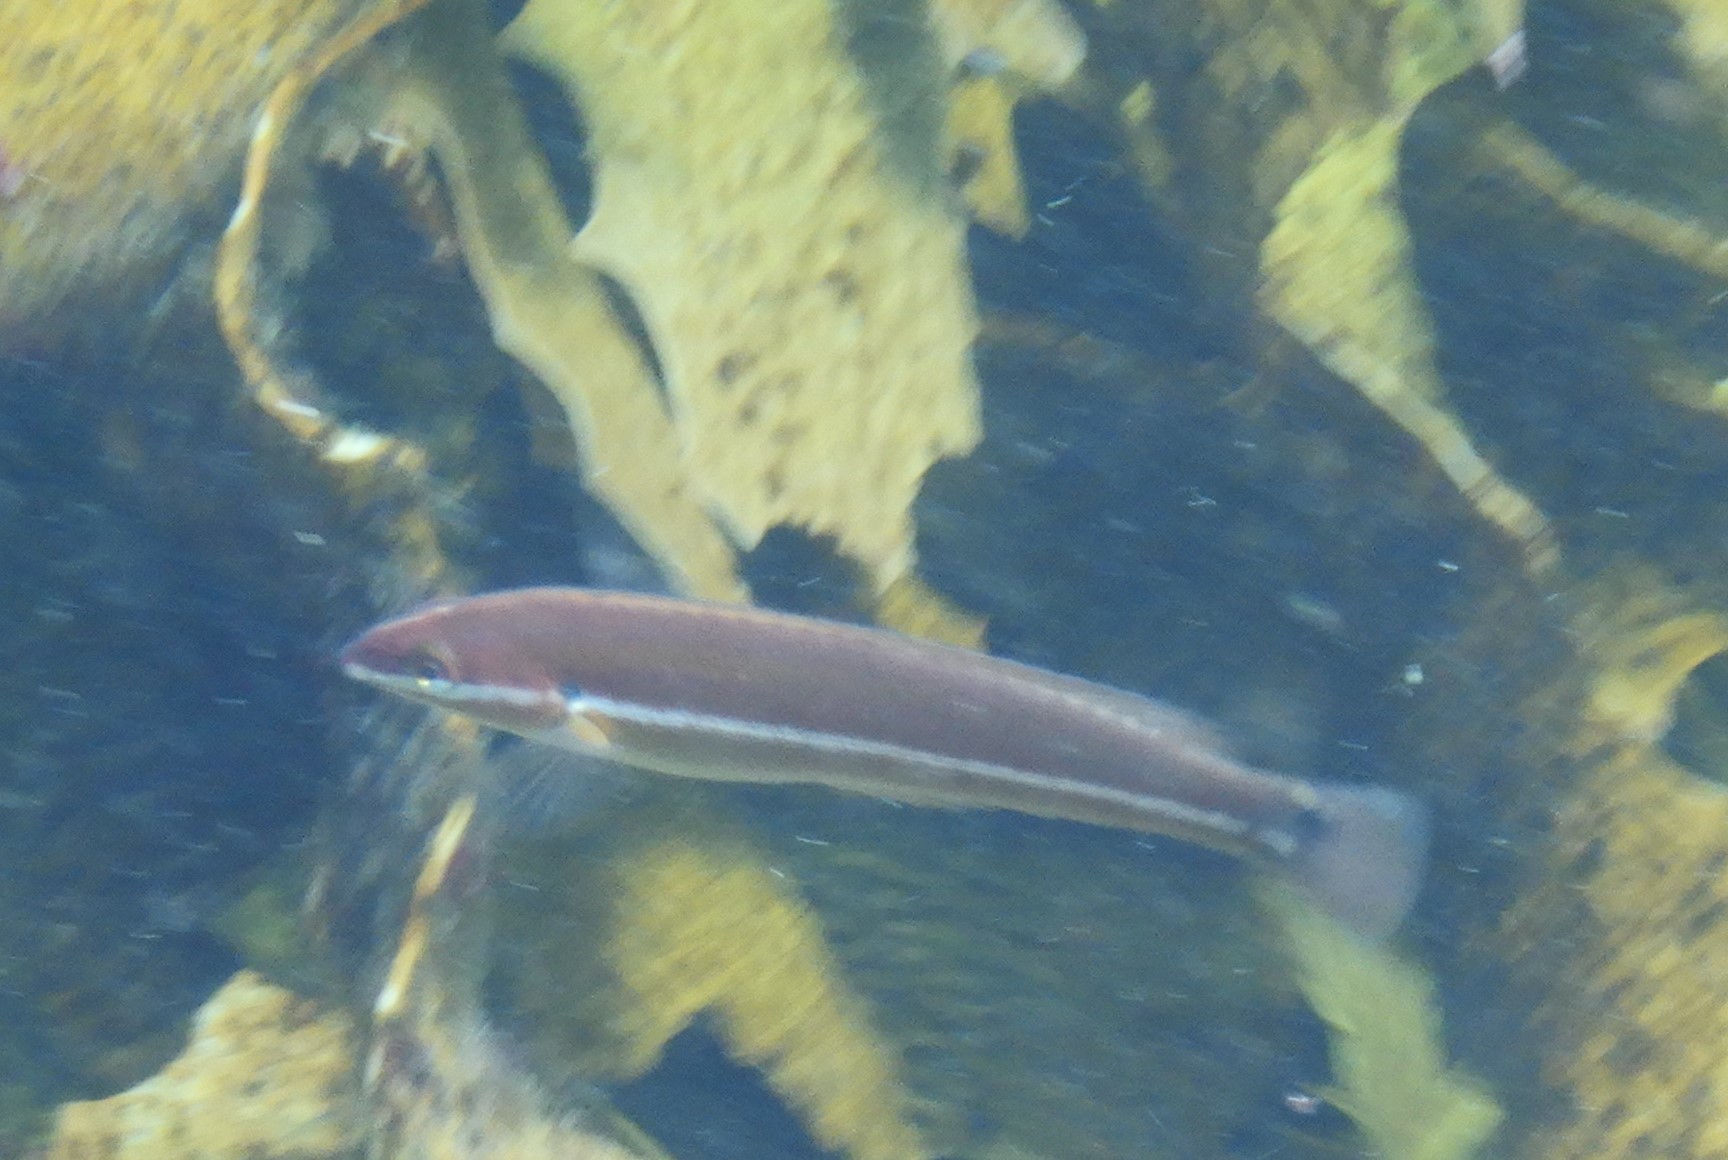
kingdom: Animalia
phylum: Chordata
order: Perciformes
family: Labridae
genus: Ophthalmolepis
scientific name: Ophthalmolepis lineolata
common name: Maori wrasse
